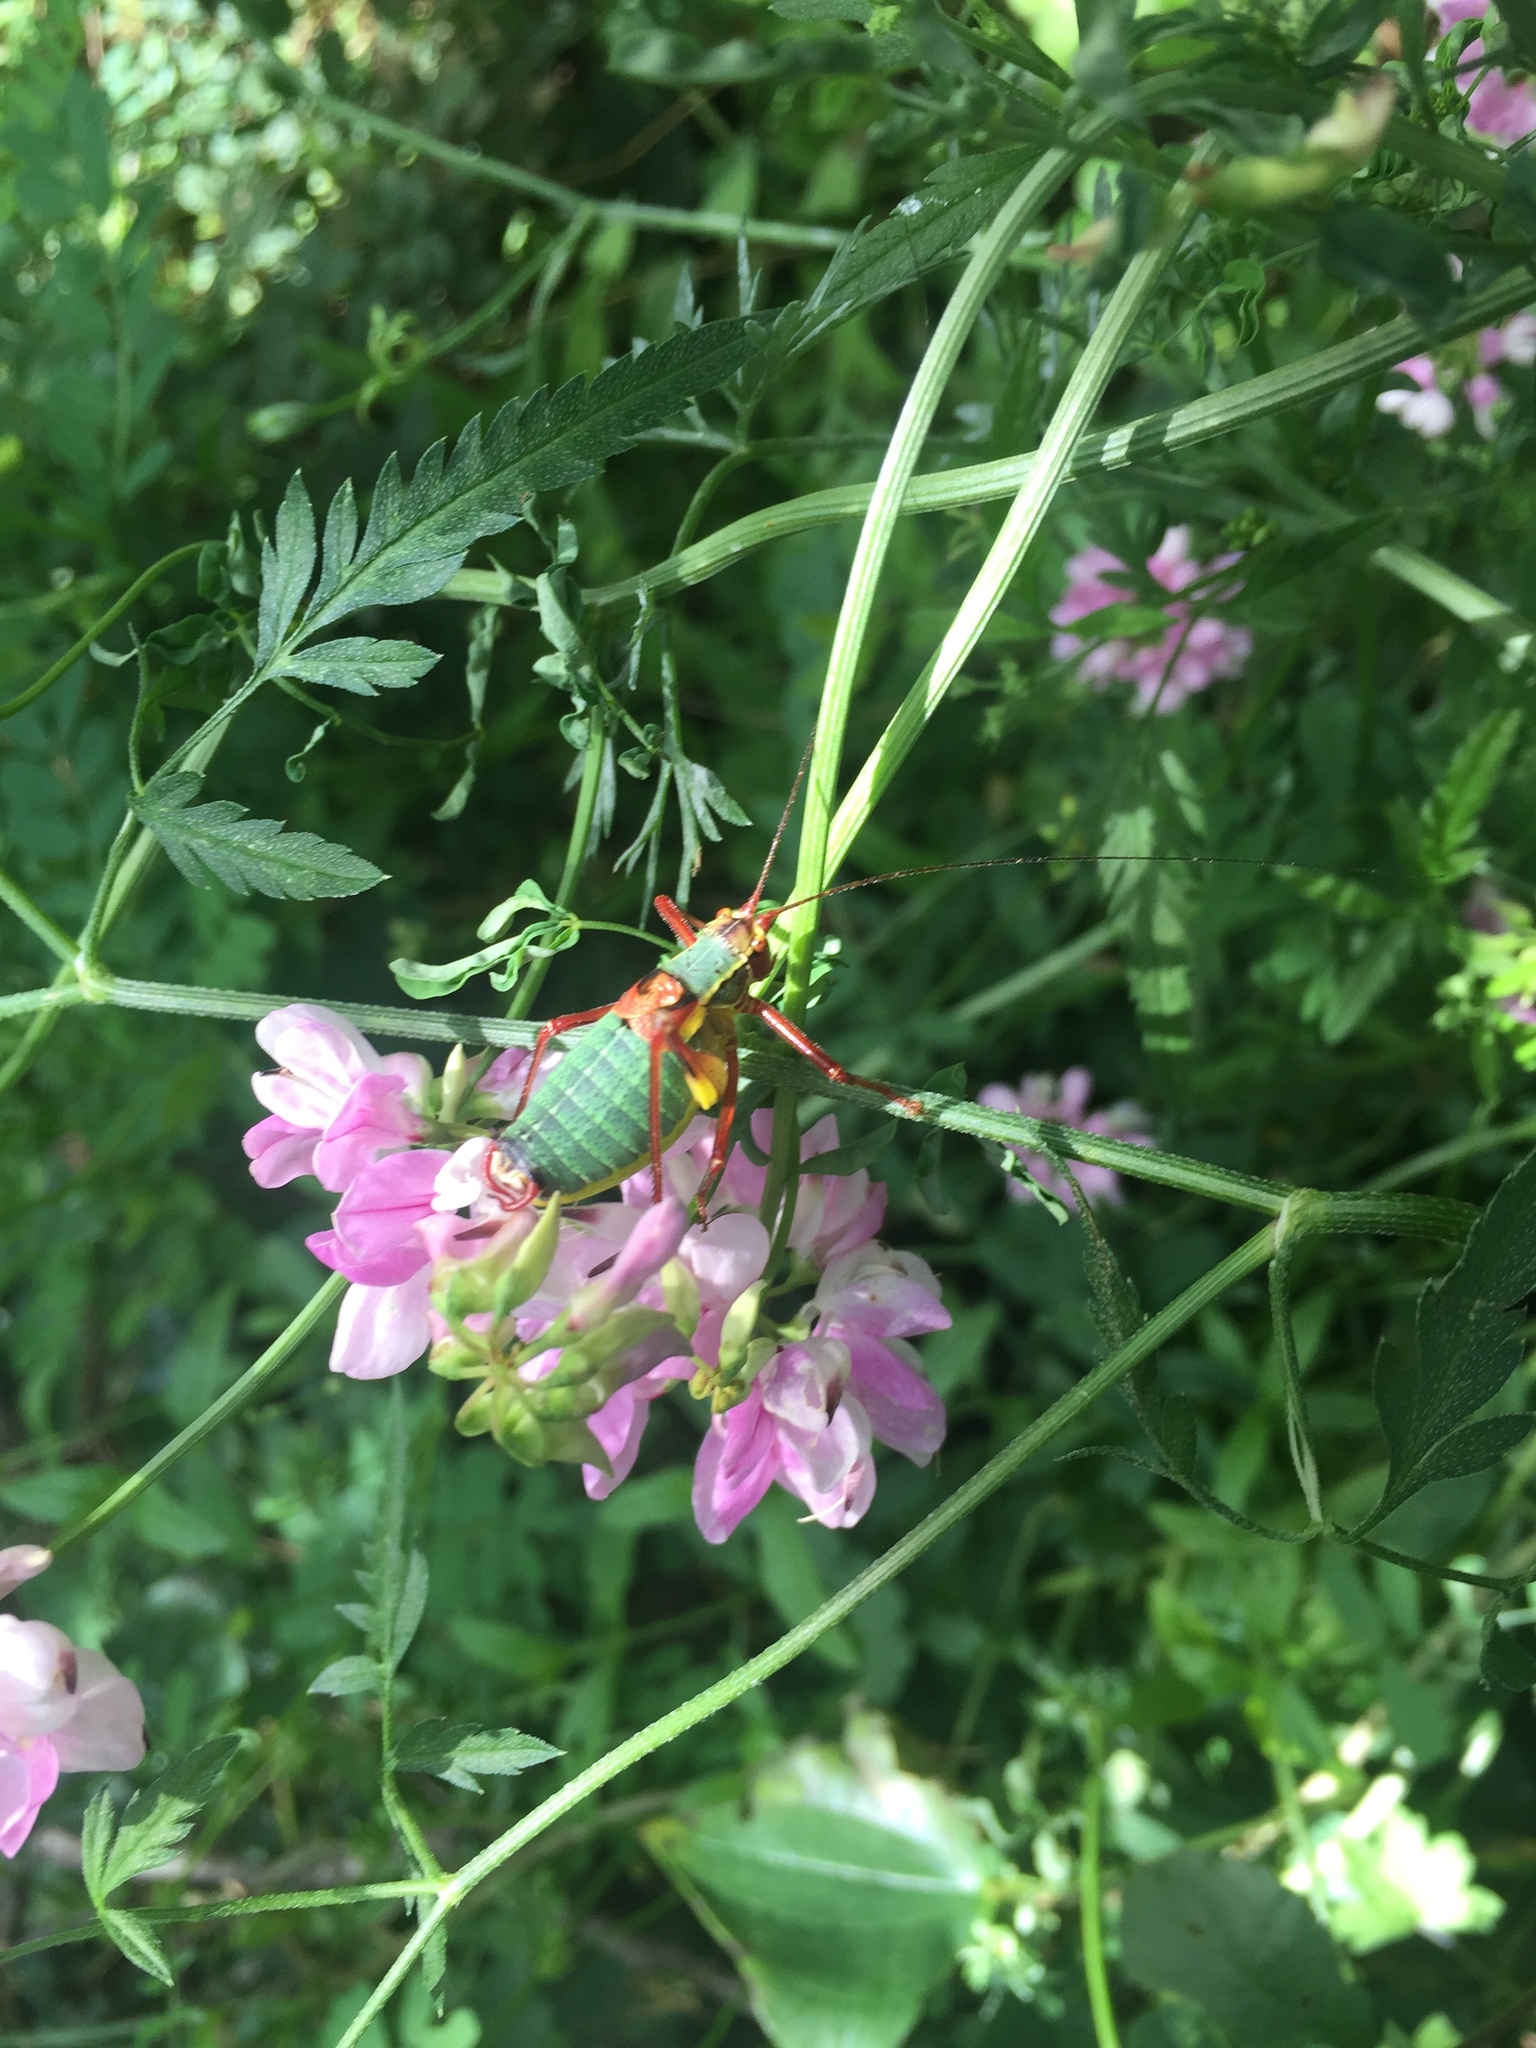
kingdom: Animalia
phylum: Arthropoda
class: Insecta
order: Orthoptera
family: Tettigoniidae
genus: Barbitistes
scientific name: Barbitistes obtusus
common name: Alpine saw bush-cricket
